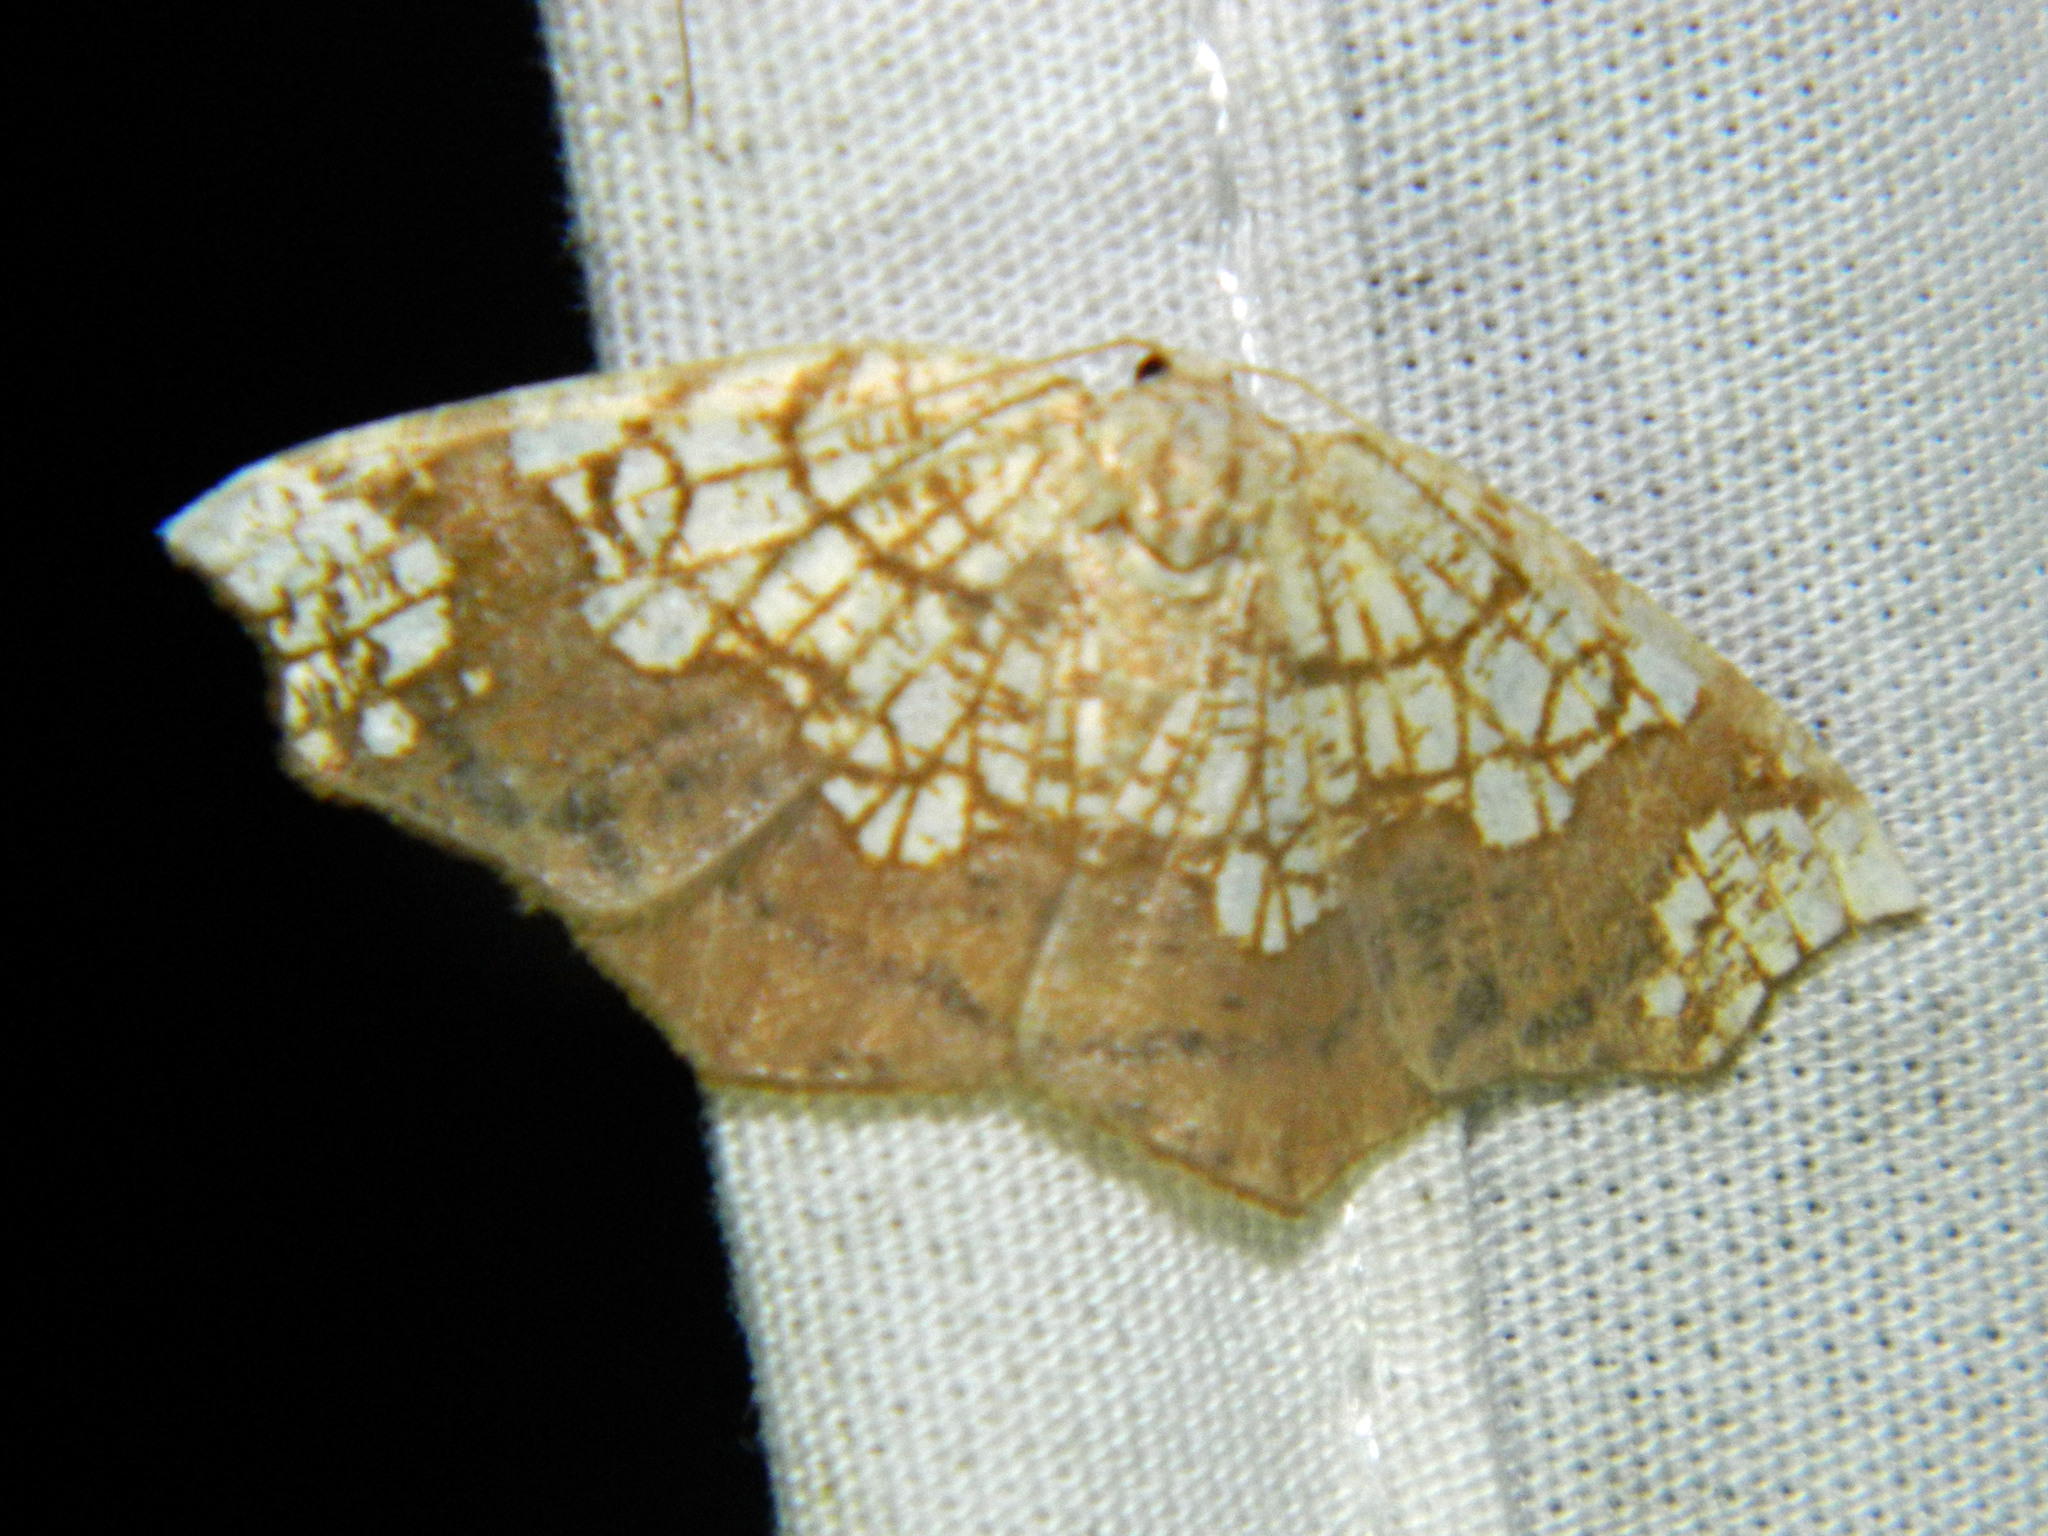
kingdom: Animalia
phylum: Arthropoda
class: Insecta
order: Lepidoptera
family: Geometridae
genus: Nematocampa
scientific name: Nematocampa resistaria
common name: Horned spanworm moth
